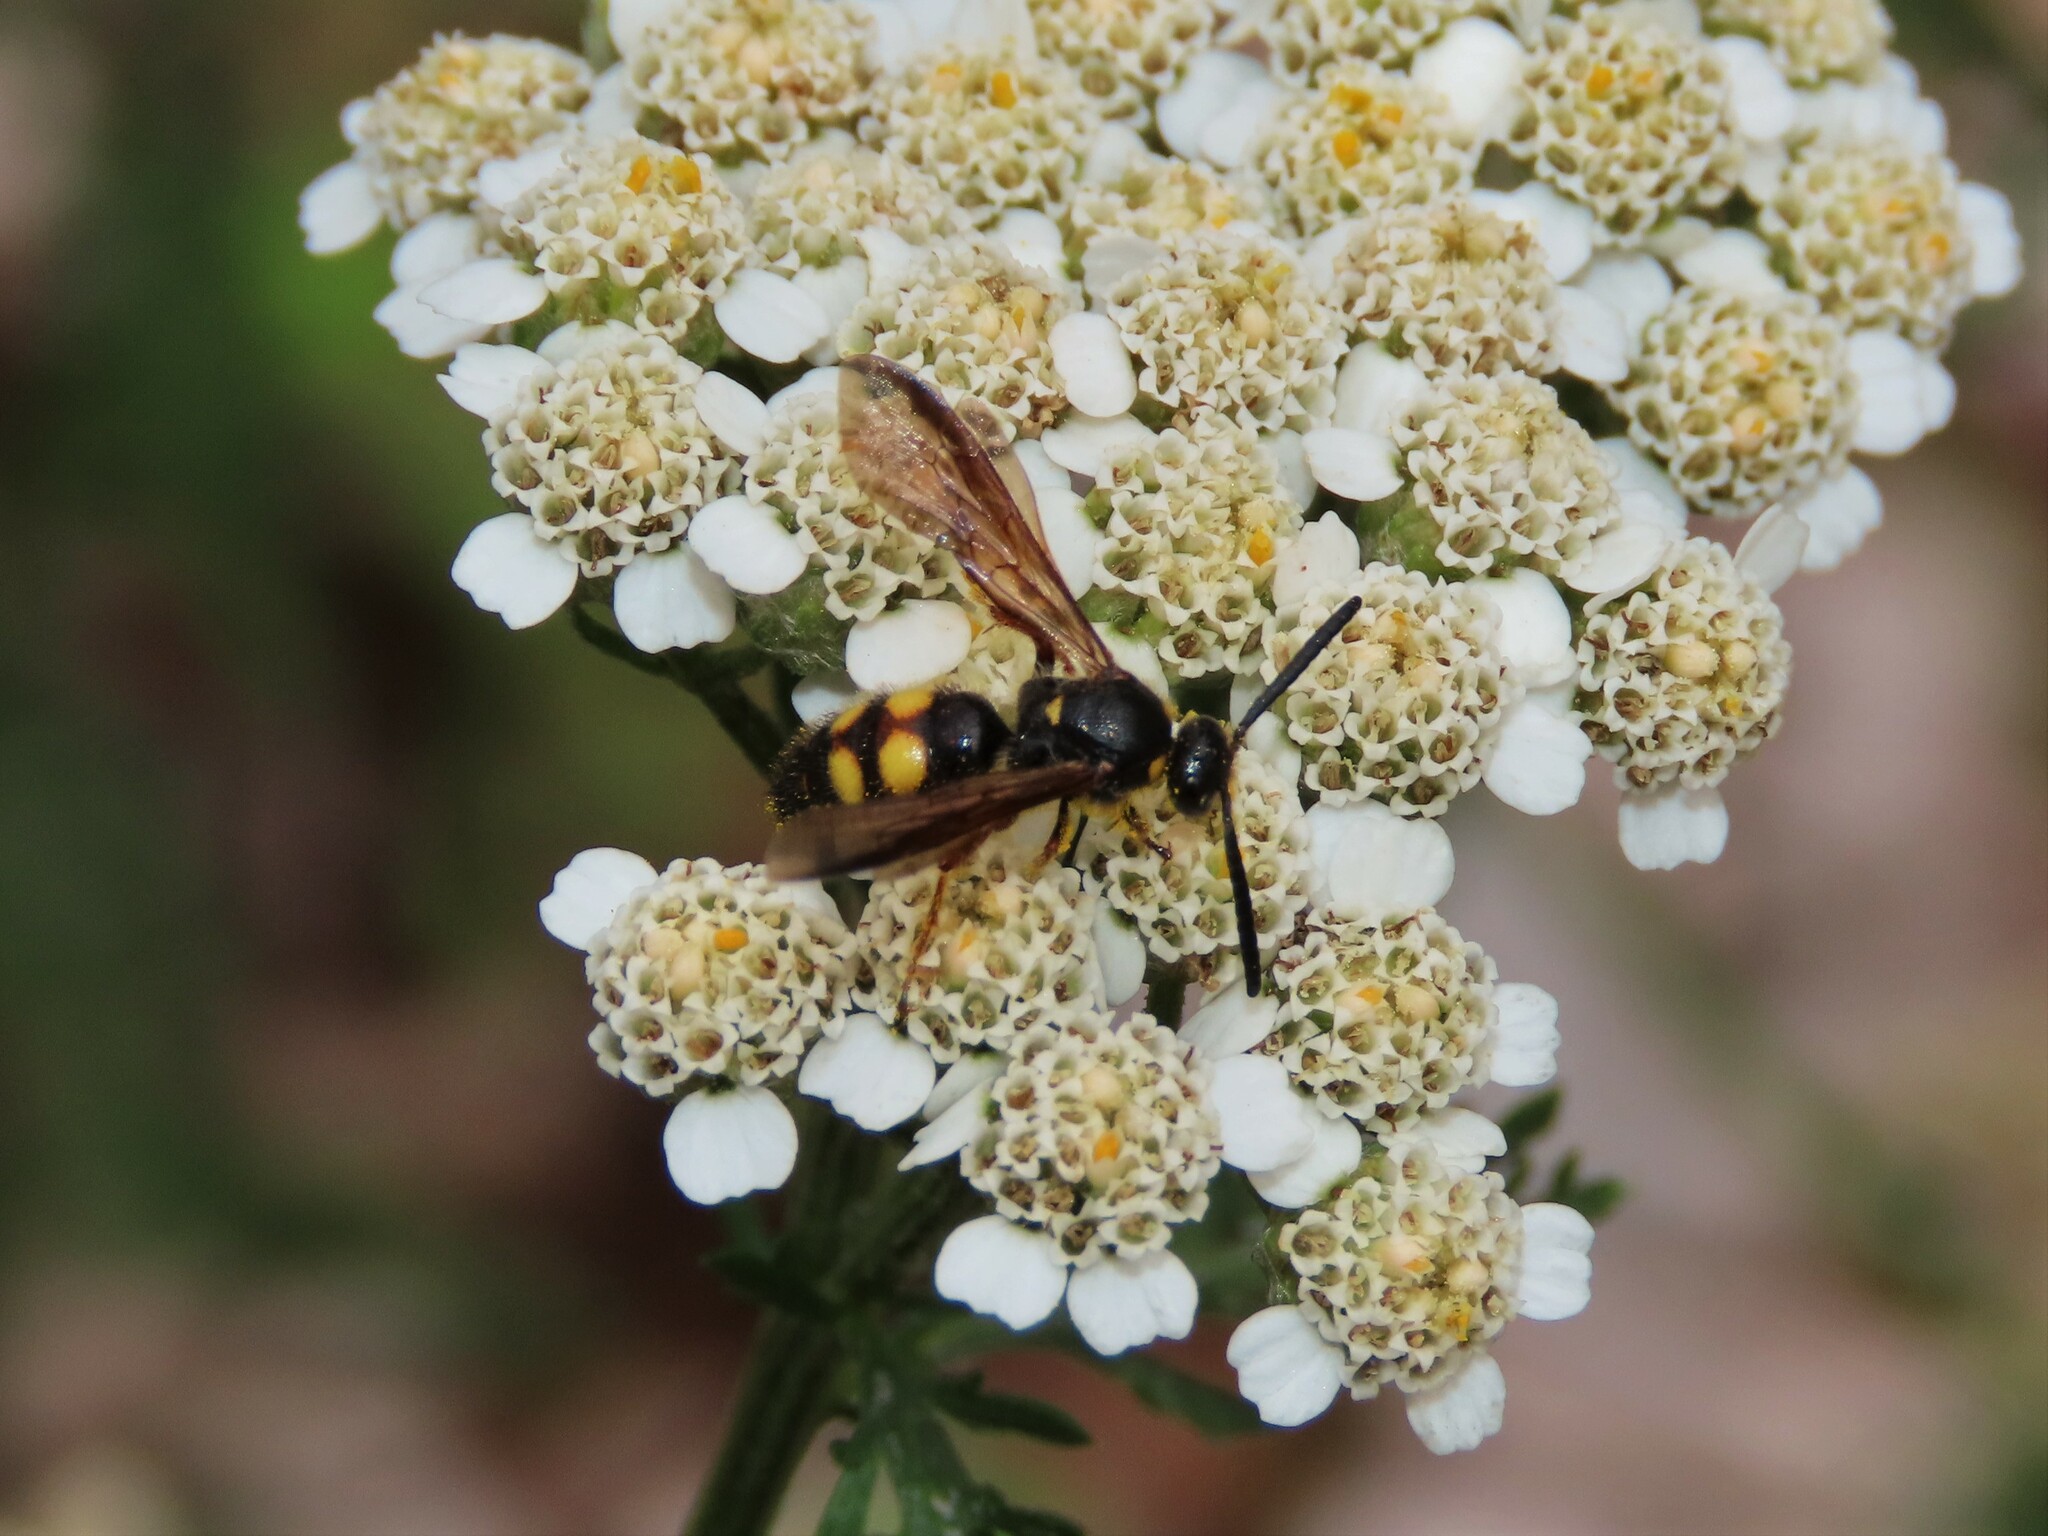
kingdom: Animalia
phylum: Arthropoda
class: Insecta
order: Hymenoptera
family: Scoliidae
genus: Scolia
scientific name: Scolia nobilitata
